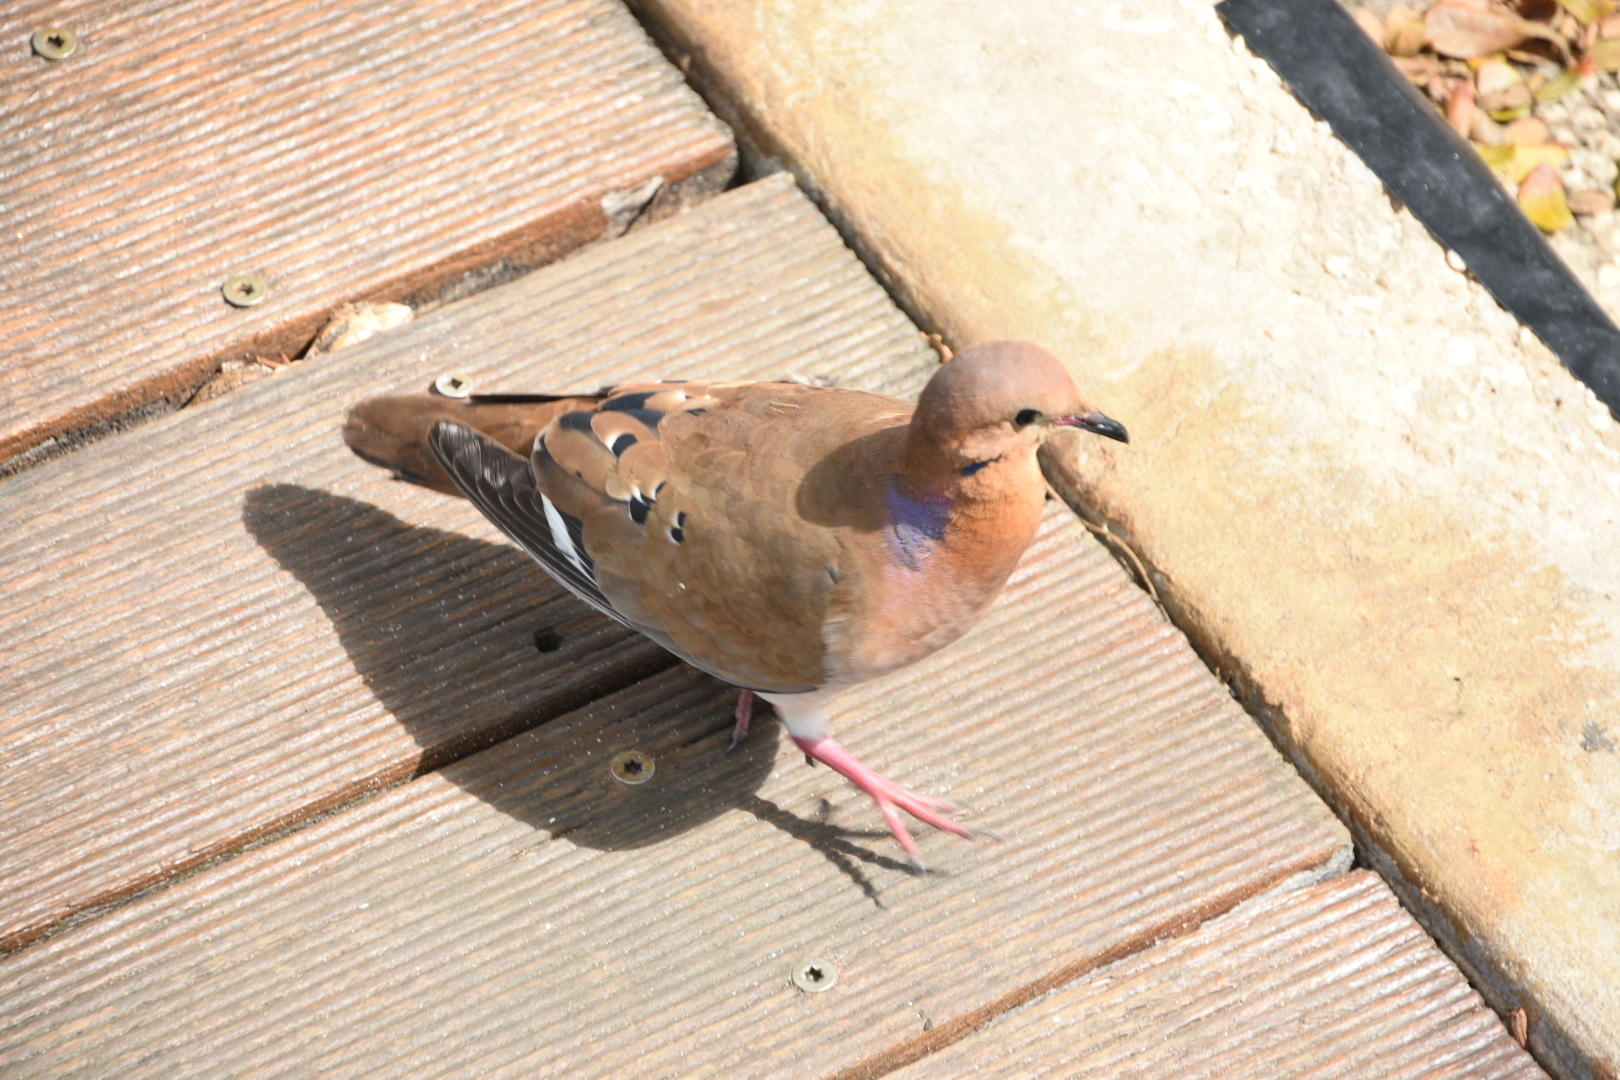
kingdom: Animalia
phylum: Chordata
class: Aves
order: Columbiformes
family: Columbidae
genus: Zenaida
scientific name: Zenaida aurita
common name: Zenaida dove
